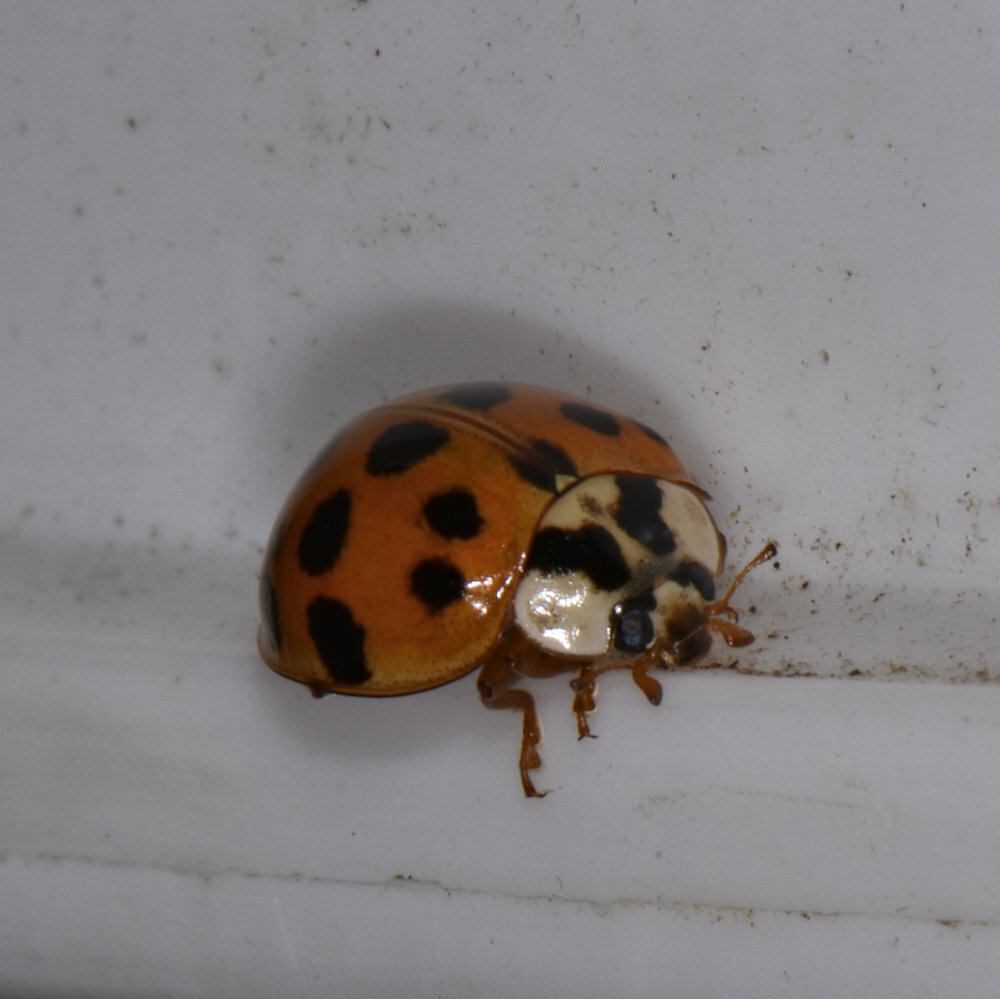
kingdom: Animalia
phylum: Arthropoda
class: Insecta
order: Coleoptera
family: Coccinellidae
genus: Harmonia
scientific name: Harmonia axyridis
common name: Harlequin ladybird
